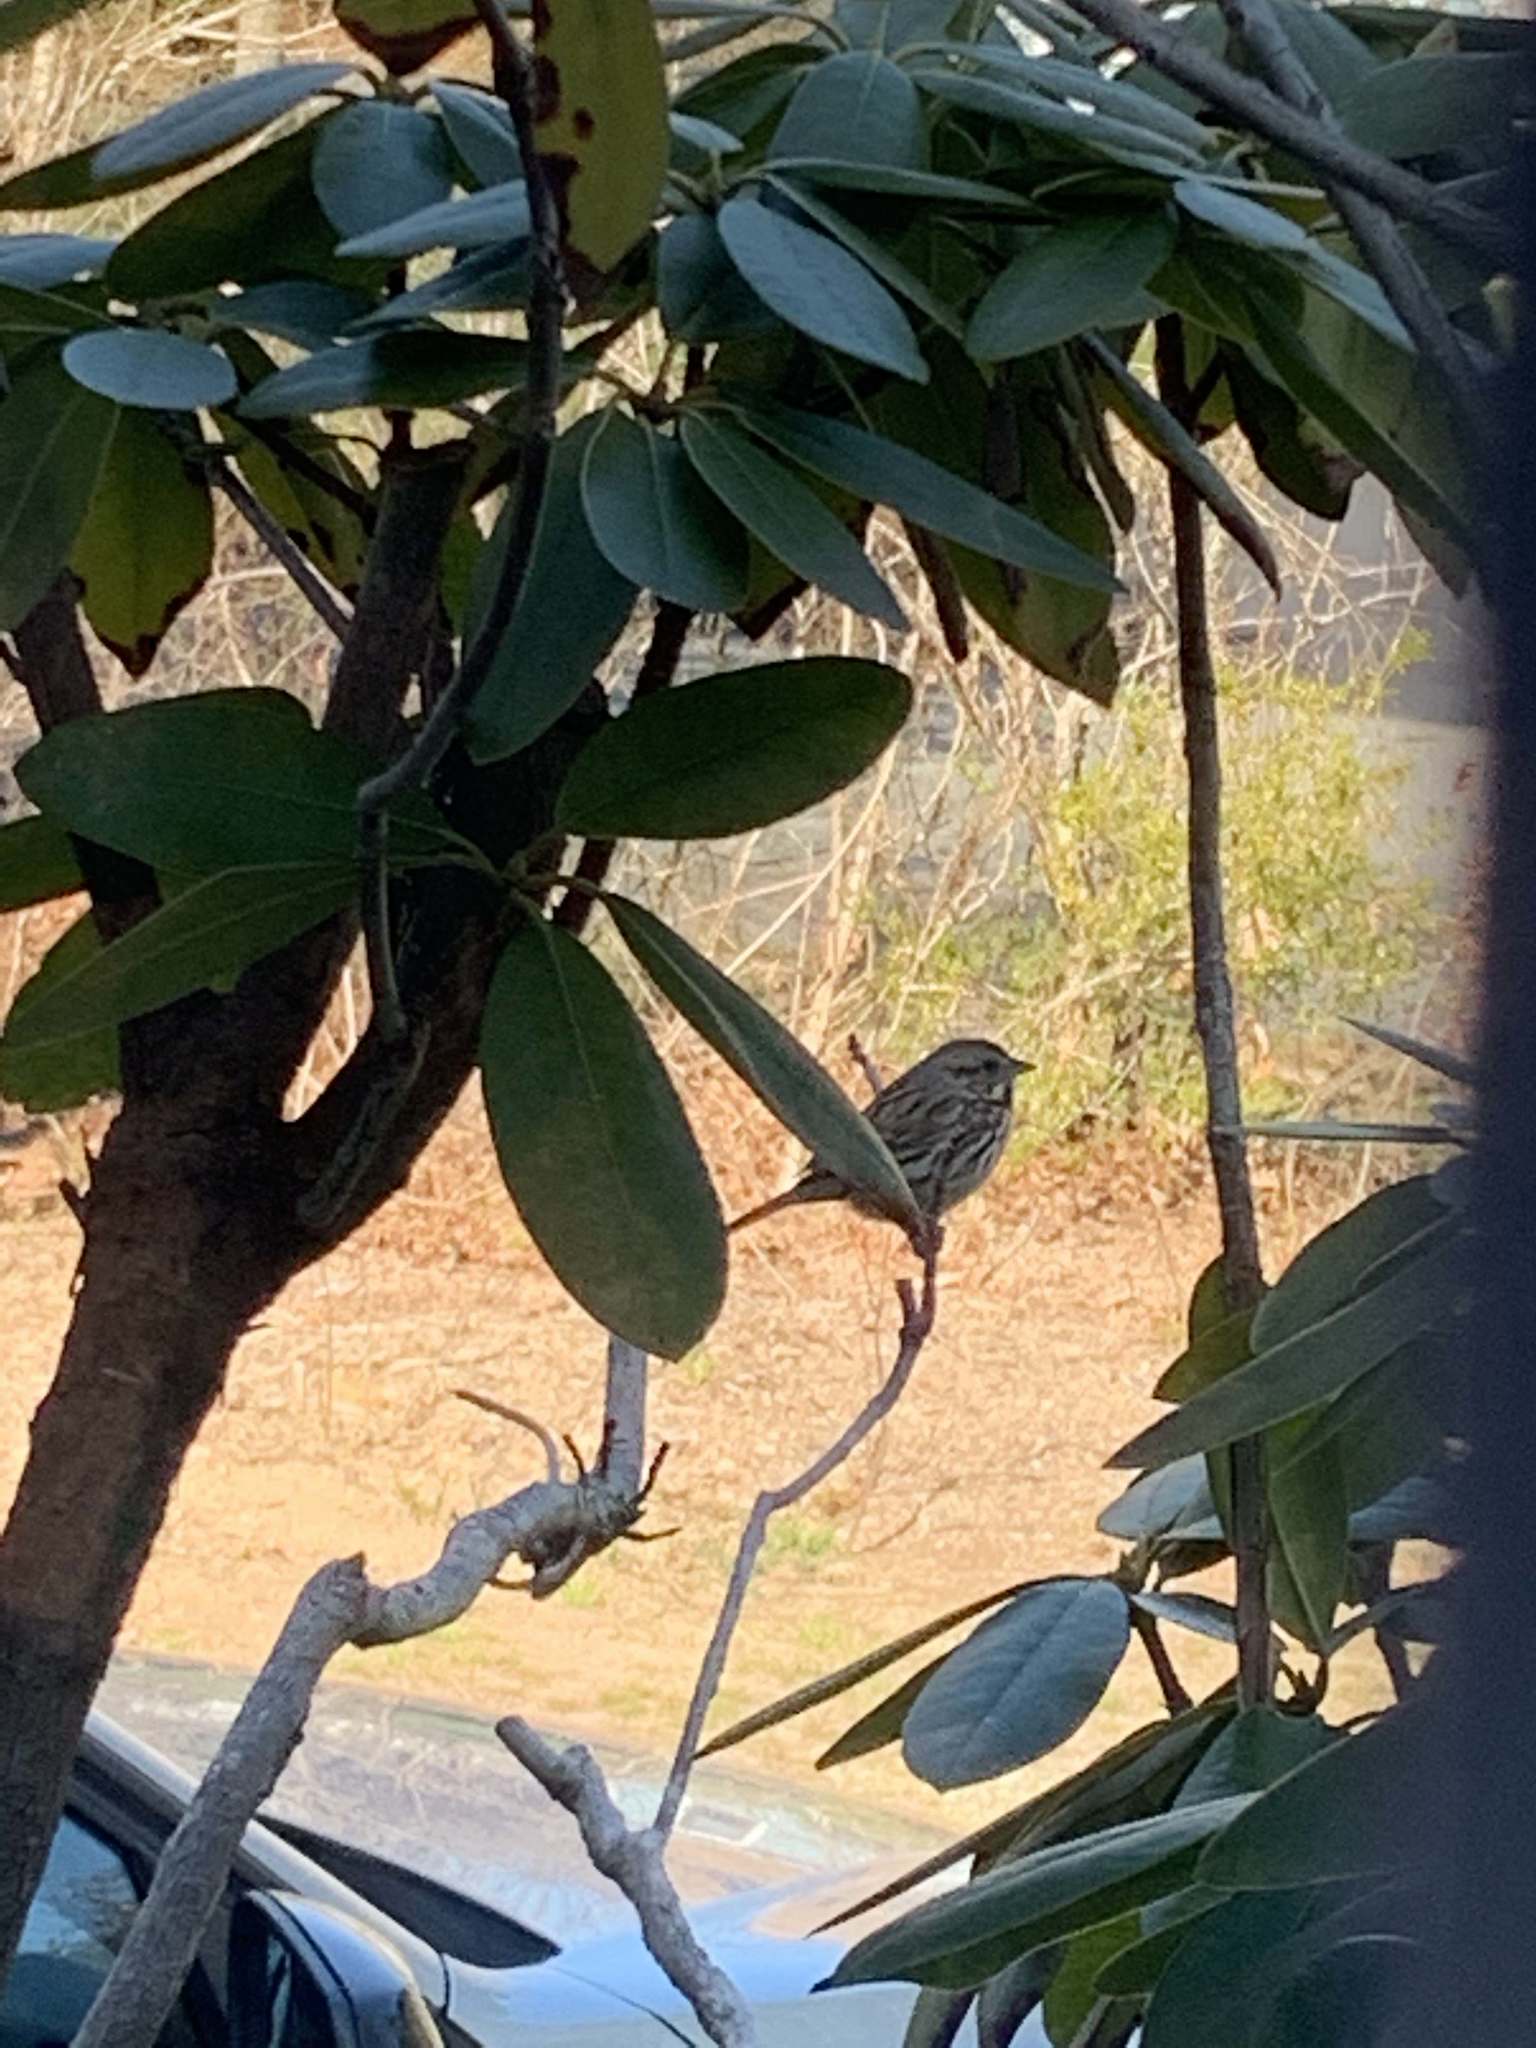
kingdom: Animalia
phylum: Chordata
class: Aves
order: Passeriformes
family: Passerellidae
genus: Melospiza
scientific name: Melospiza melodia
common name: Song sparrow
